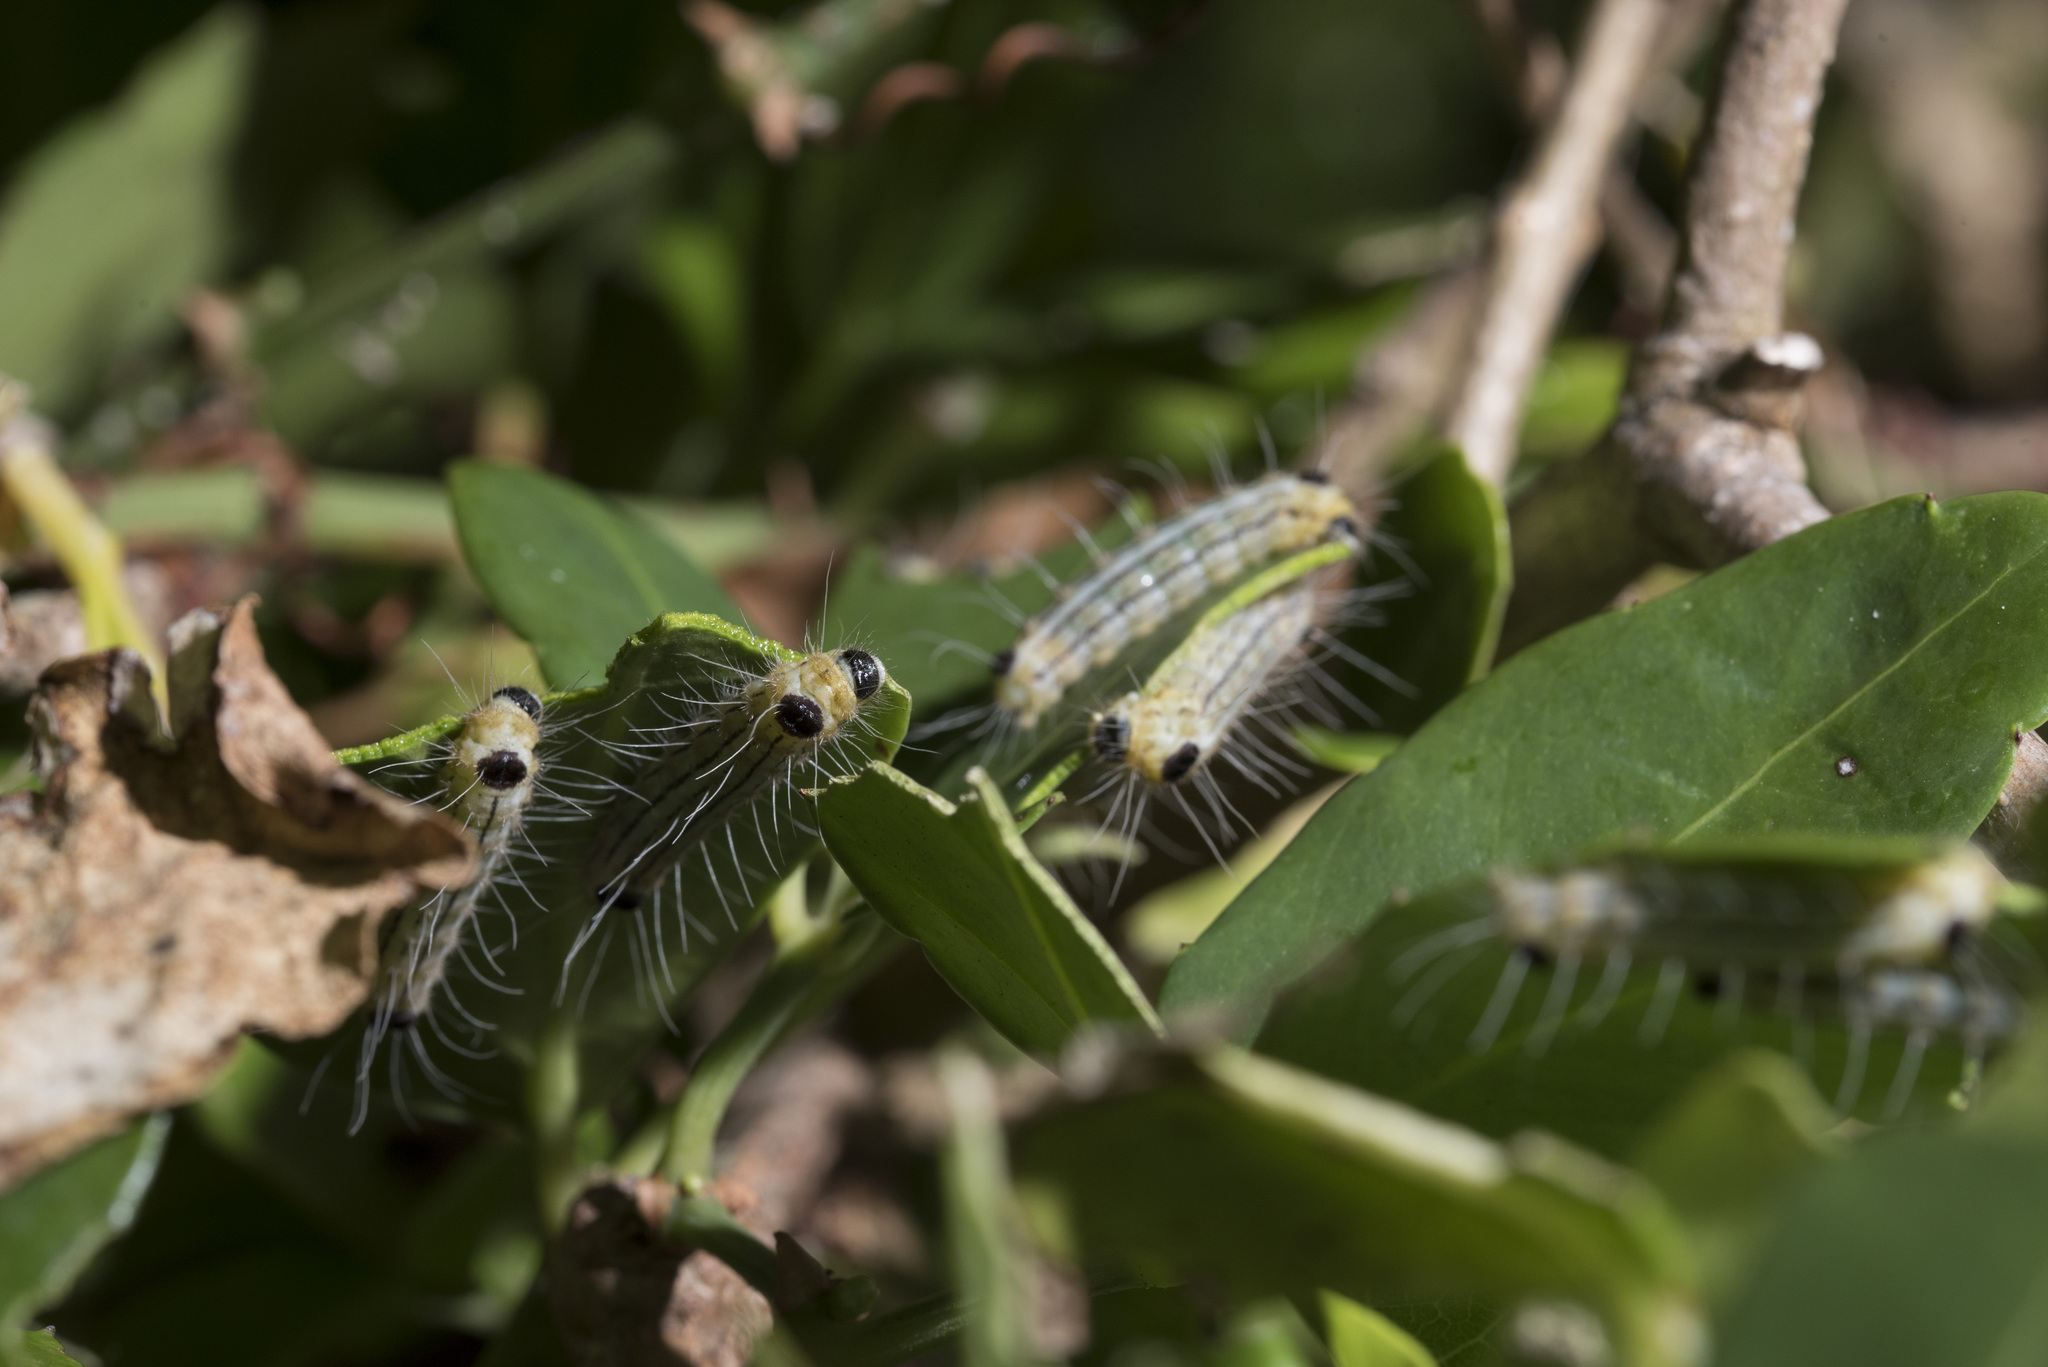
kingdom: Animalia
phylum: Arthropoda
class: Insecta
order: Lepidoptera
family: Zygaenidae
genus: Clelea
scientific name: Clelea nigroviridis
